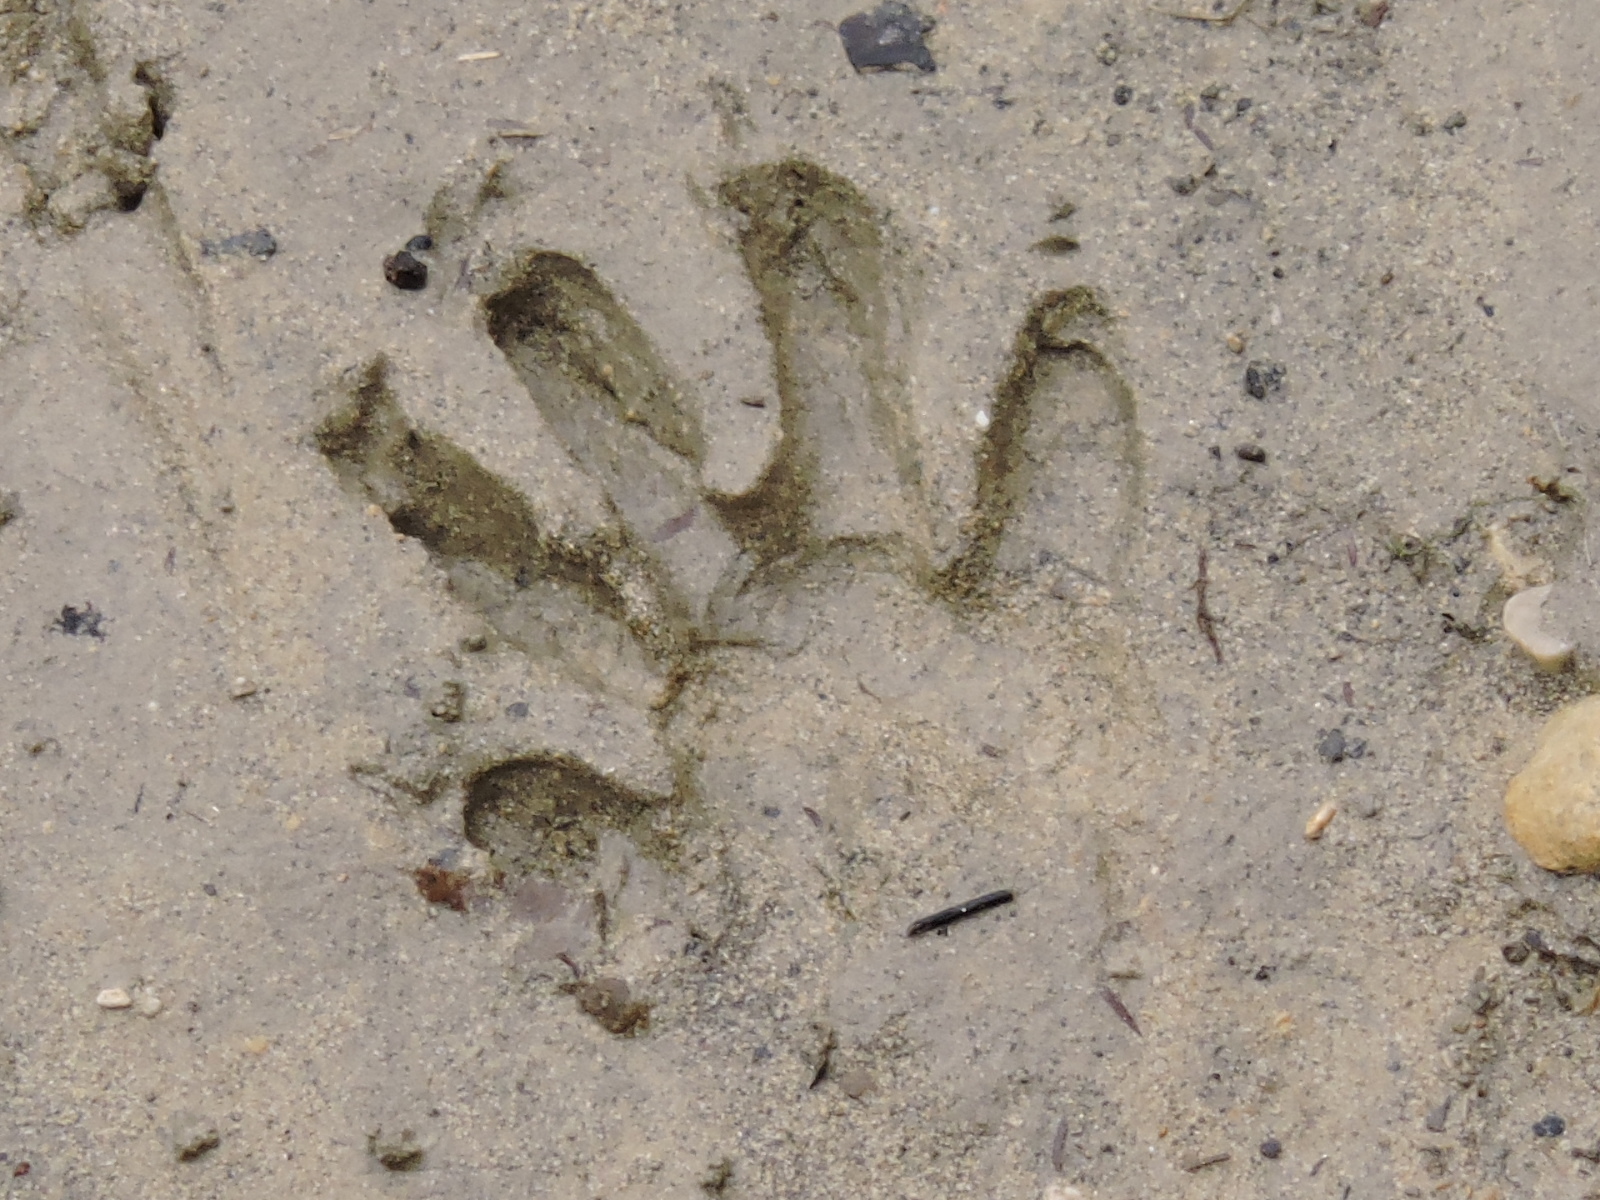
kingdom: Animalia
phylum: Chordata
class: Mammalia
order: Carnivora
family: Procyonidae
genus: Procyon
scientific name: Procyon lotor
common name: Raccoon
